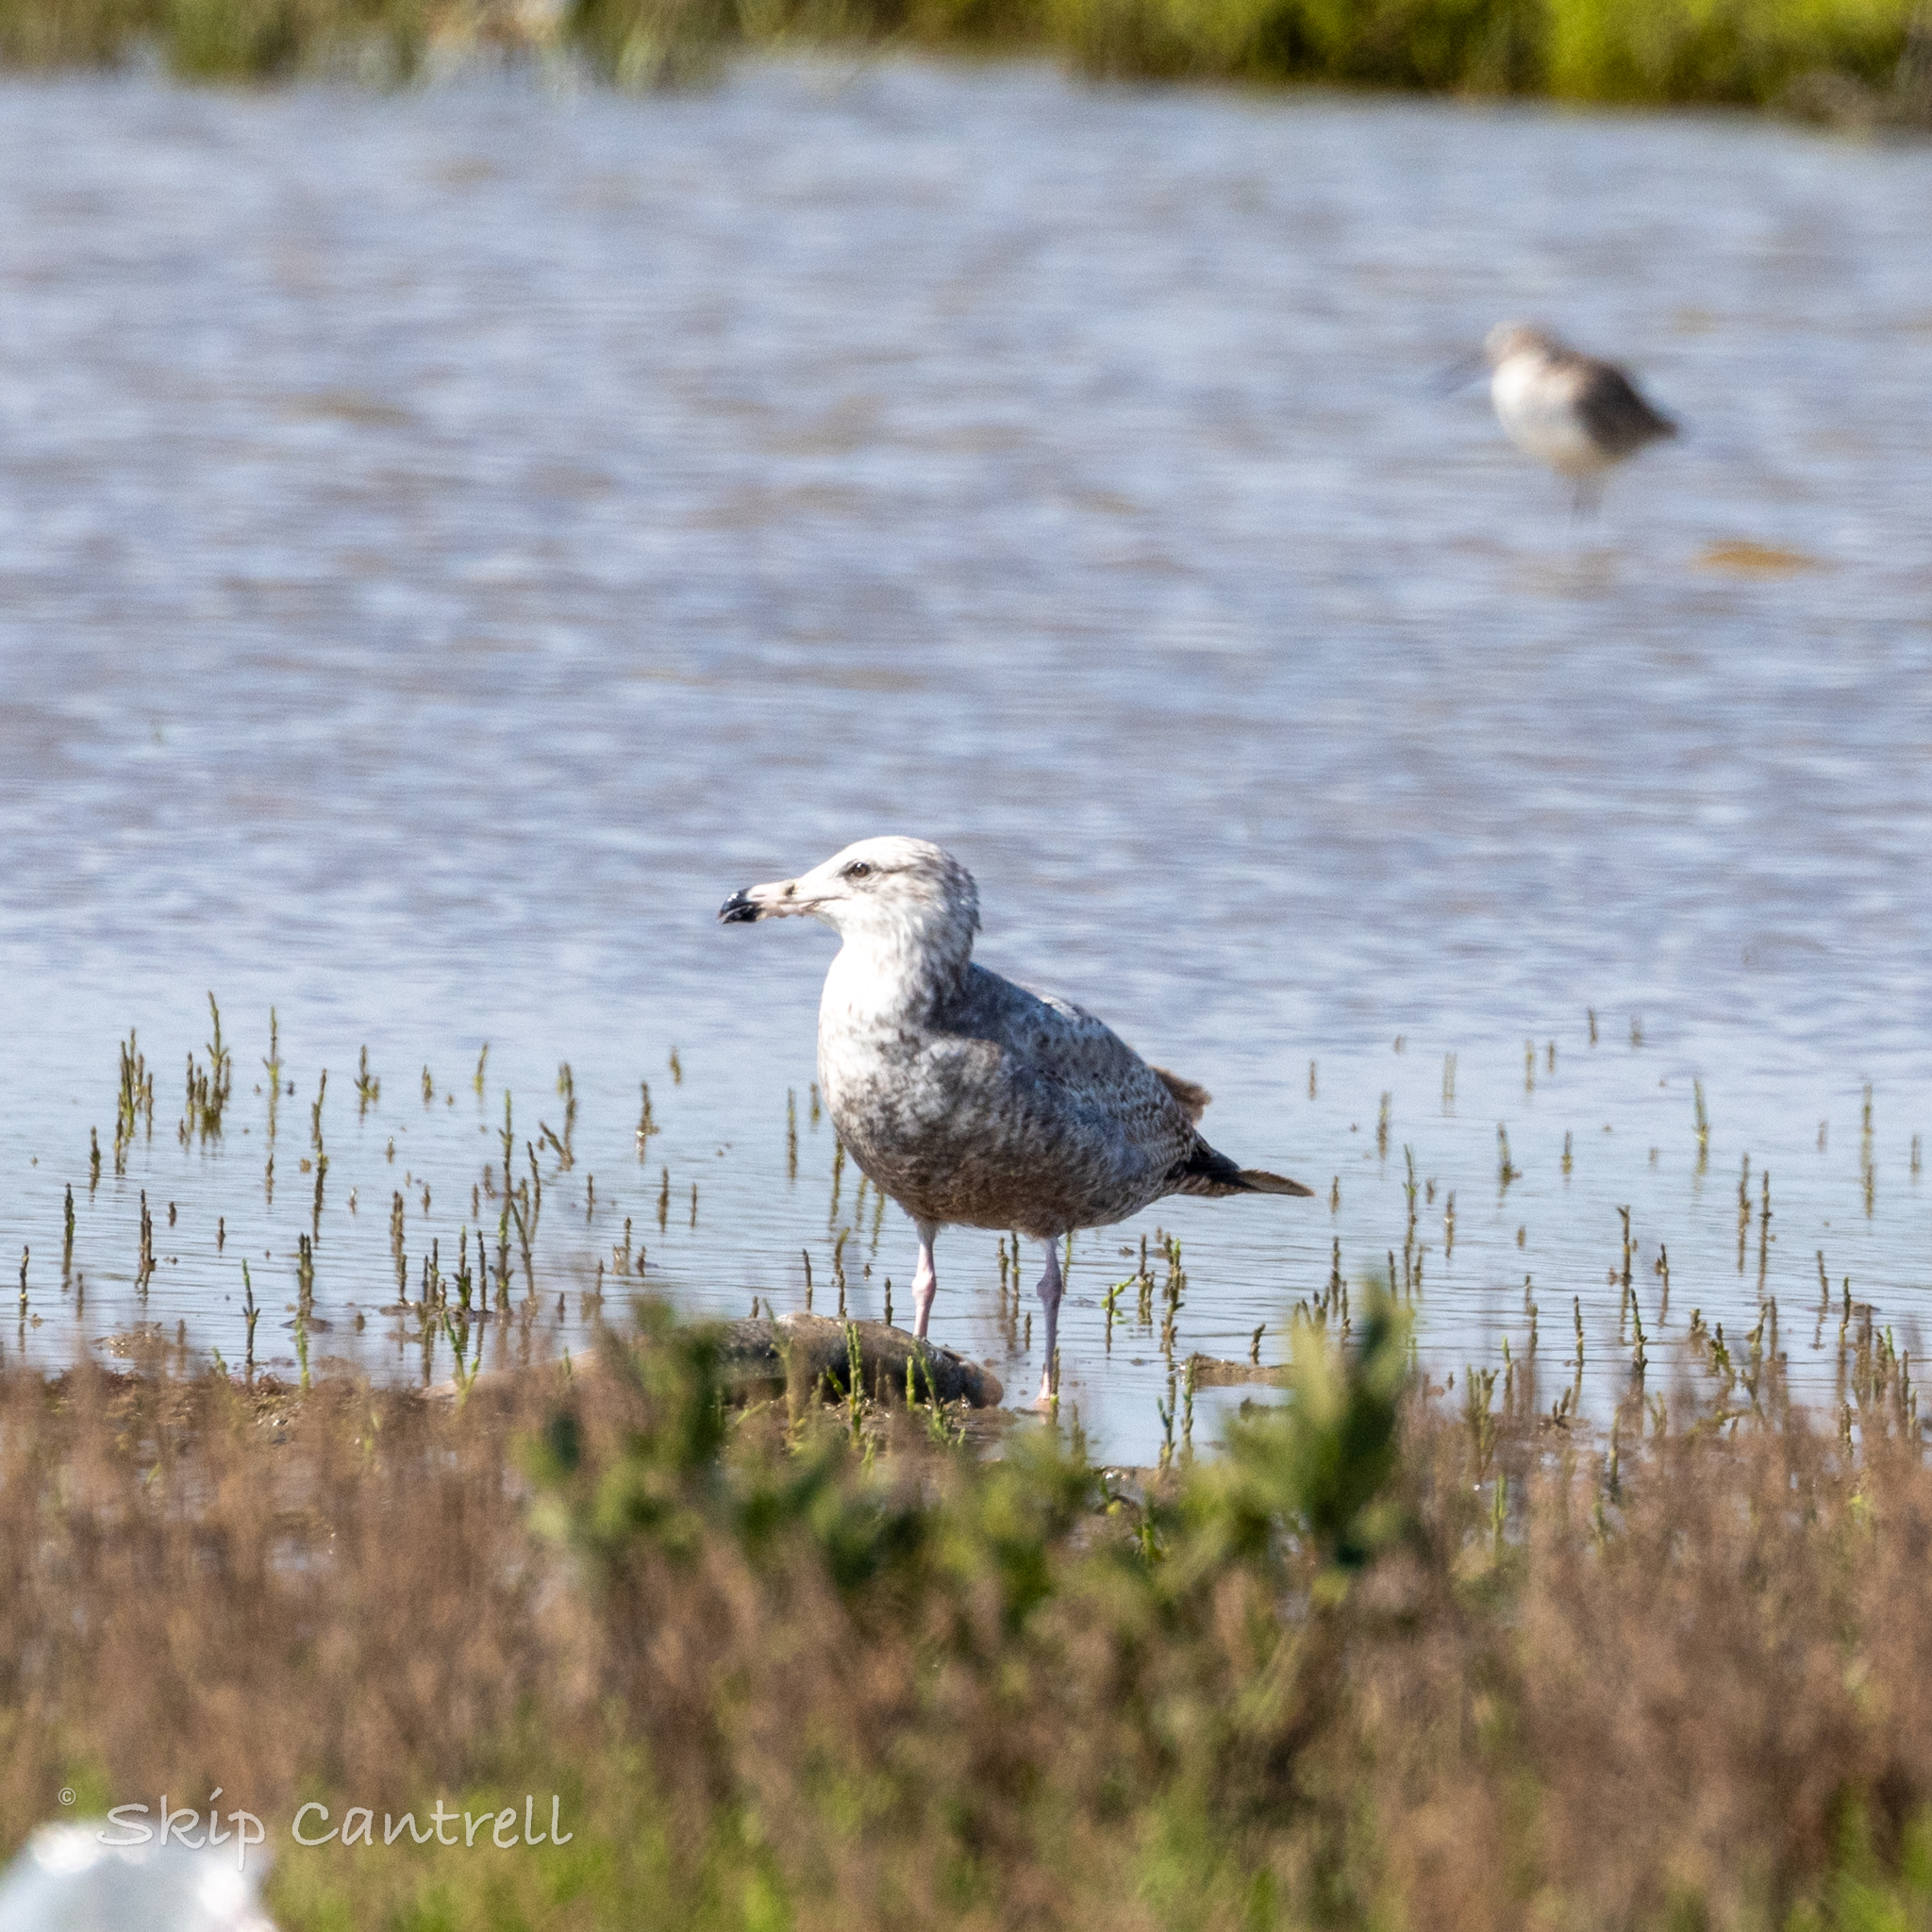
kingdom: Animalia
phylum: Chordata
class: Aves
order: Charadriiformes
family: Laridae
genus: Larus
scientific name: Larus argentatus
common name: Herring gull
